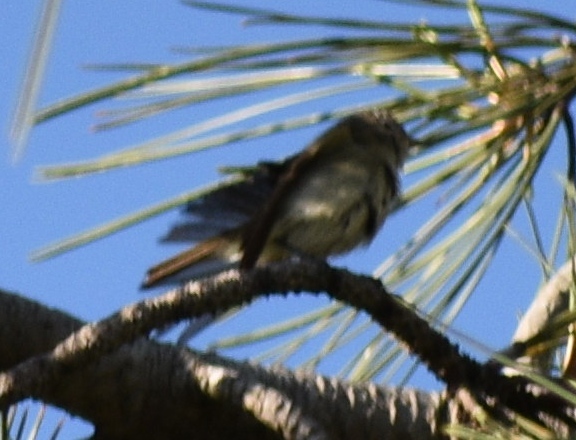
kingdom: Animalia
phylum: Chordata
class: Aves
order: Passeriformes
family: Vireonidae
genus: Vireo
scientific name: Vireo gilvus
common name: Warbling vireo
